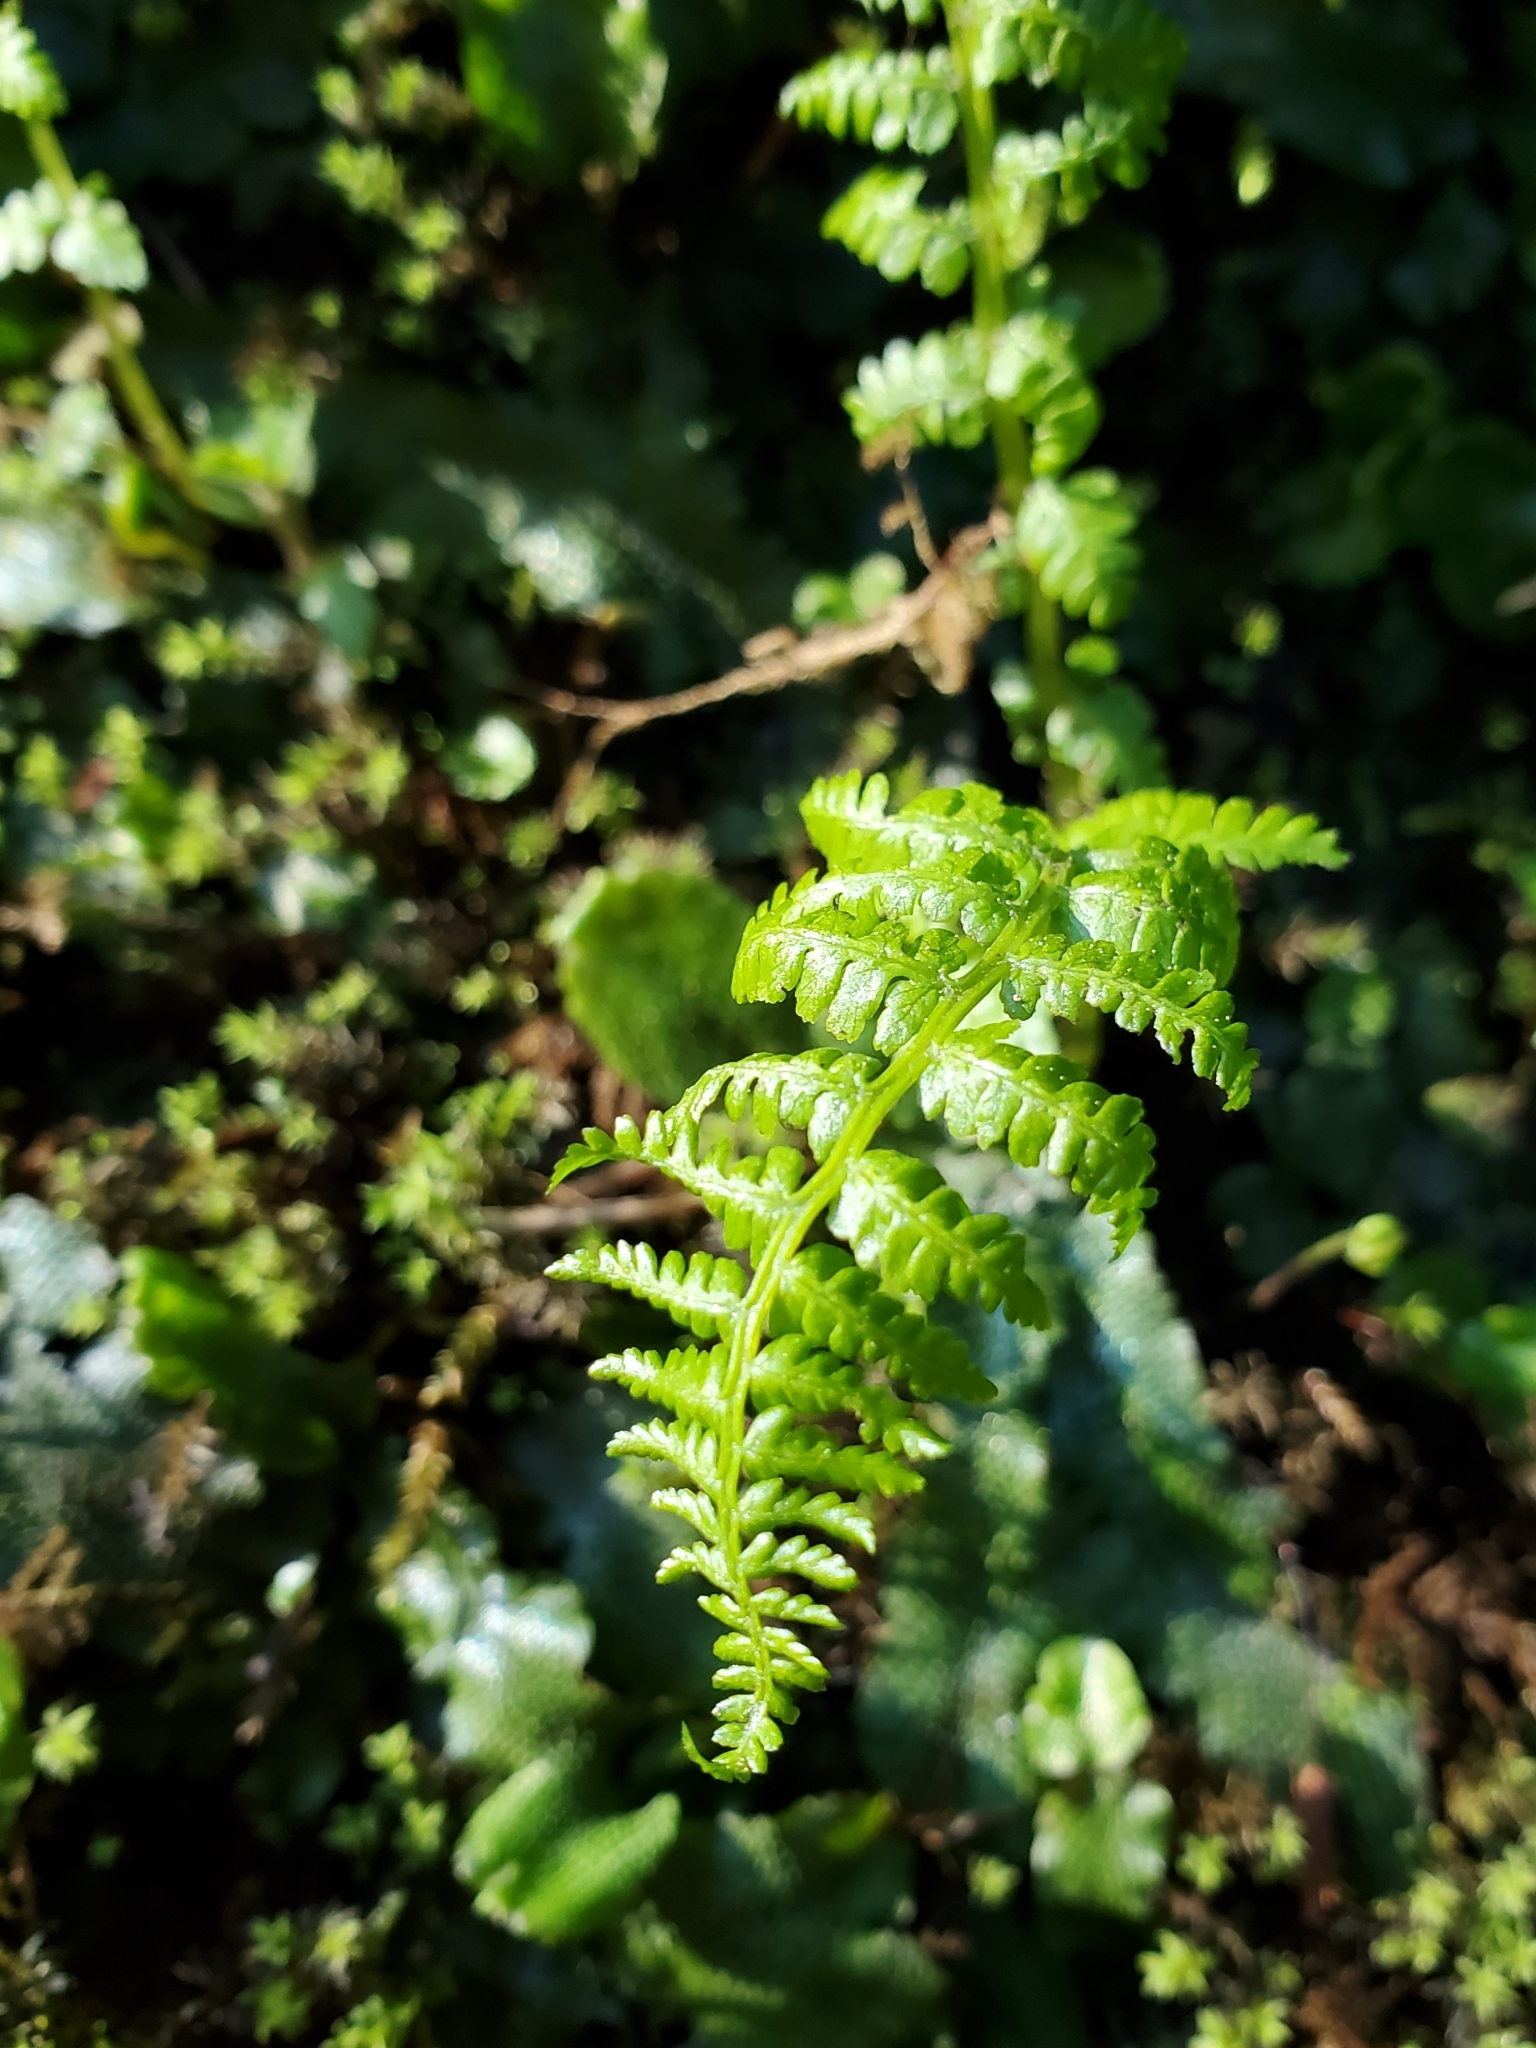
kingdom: Plantae
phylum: Tracheophyta
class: Polypodiopsida
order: Polypodiales
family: Athyriaceae
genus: Athyrium
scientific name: Athyrium filix-femina
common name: Lady fern
